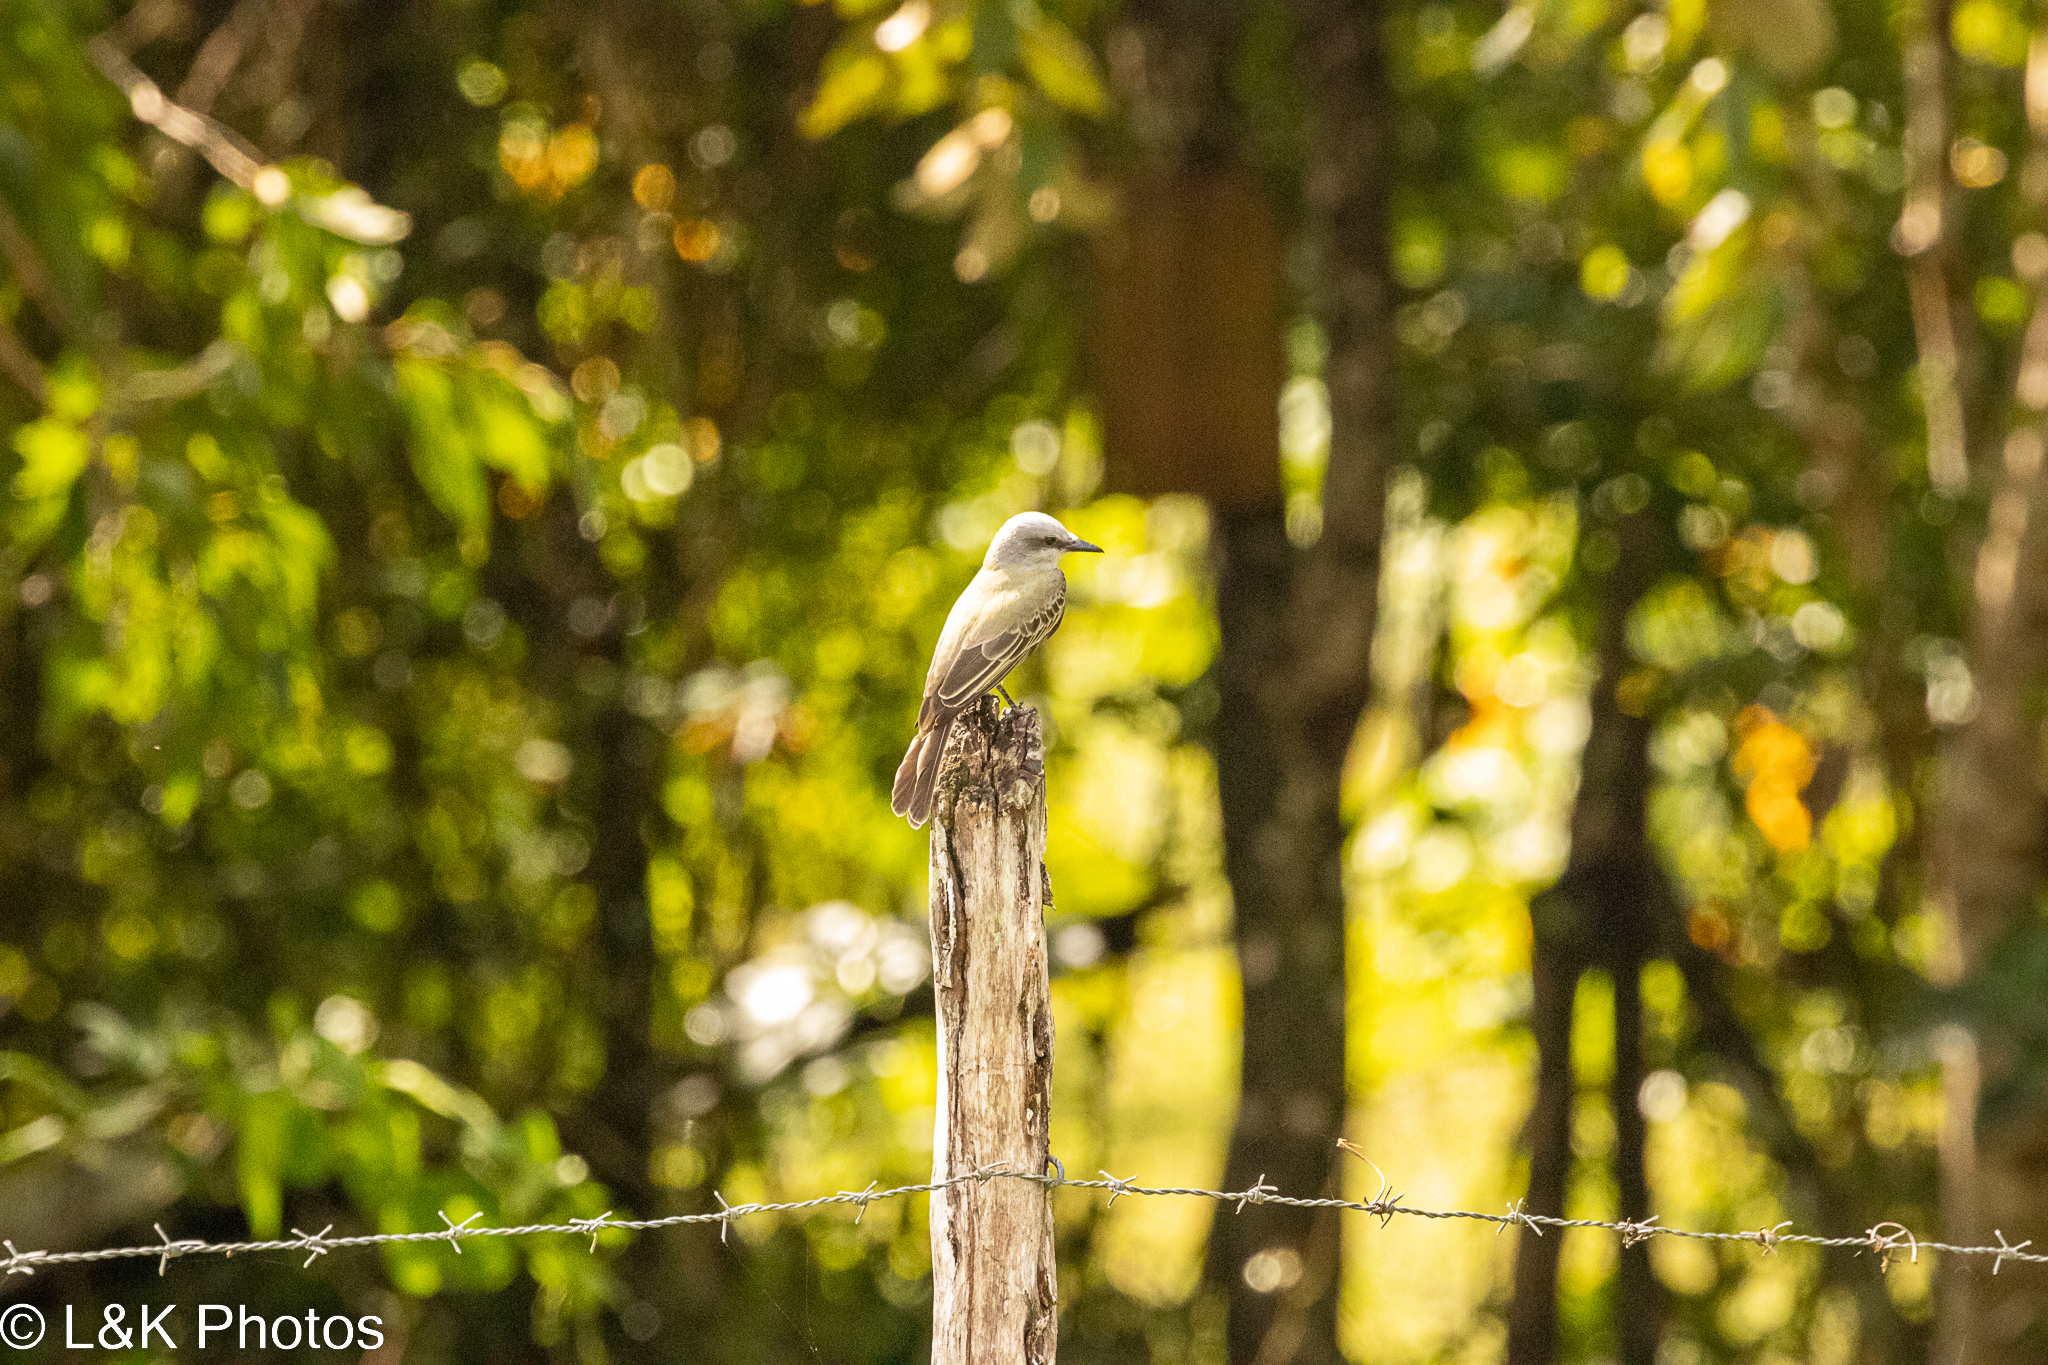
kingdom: Animalia
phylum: Chordata
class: Aves
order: Passeriformes
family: Mimidae
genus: Mimus
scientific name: Mimus gilvus
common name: Tropical mockingbird
